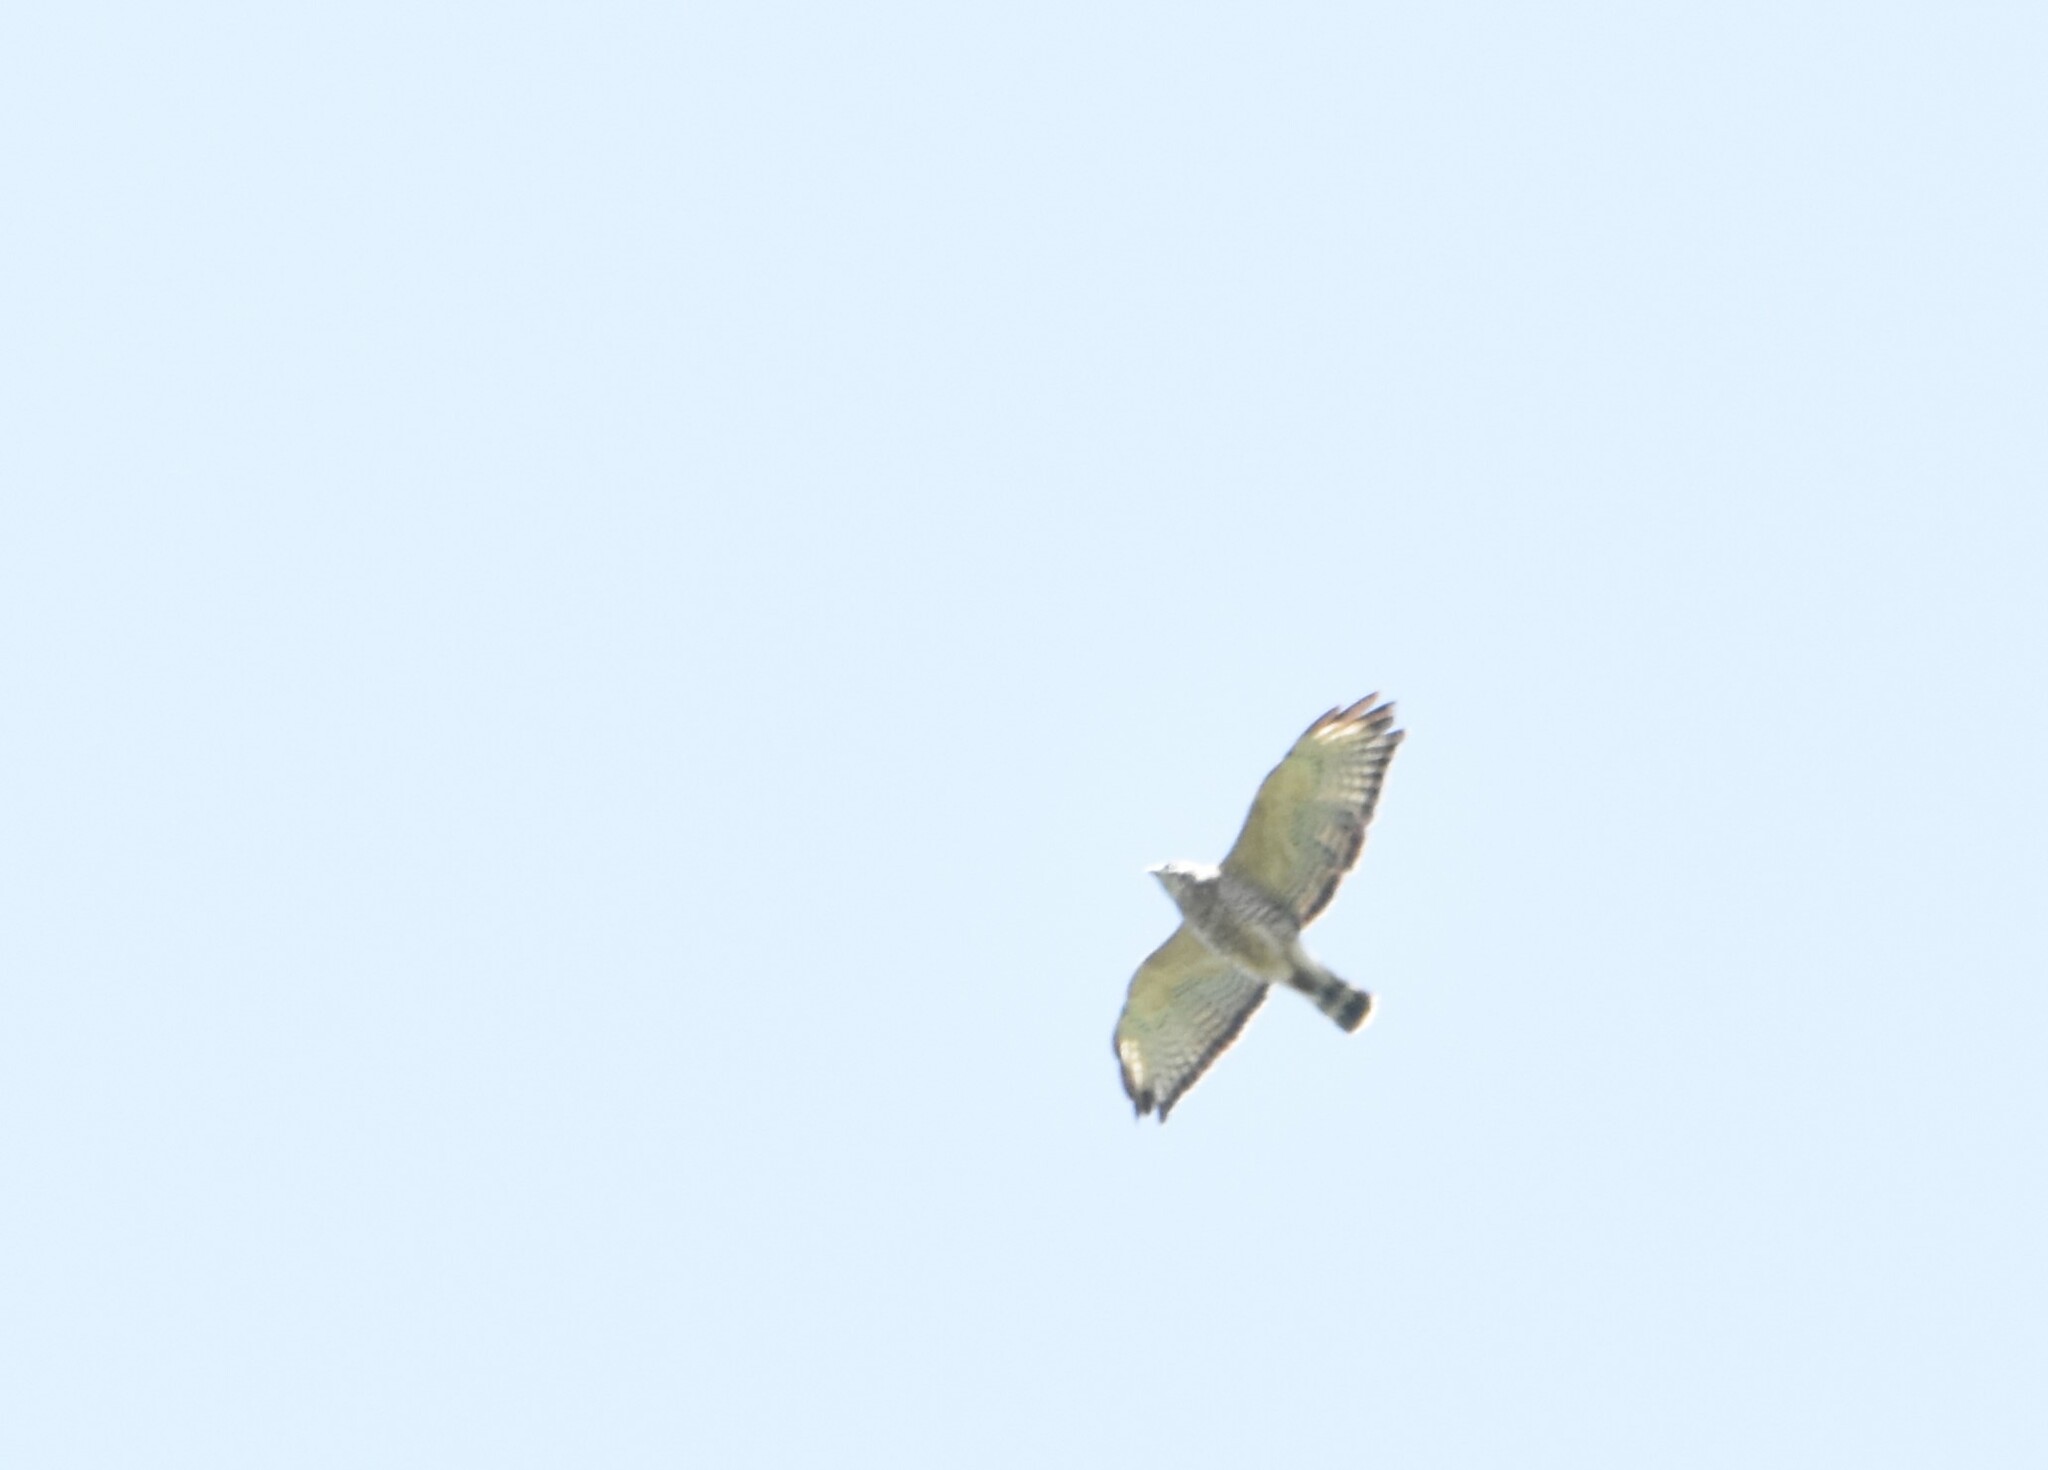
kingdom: Animalia
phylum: Chordata
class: Aves
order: Accipitriformes
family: Accipitridae
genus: Buteo
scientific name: Buteo platypterus
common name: Broad-winged hawk
